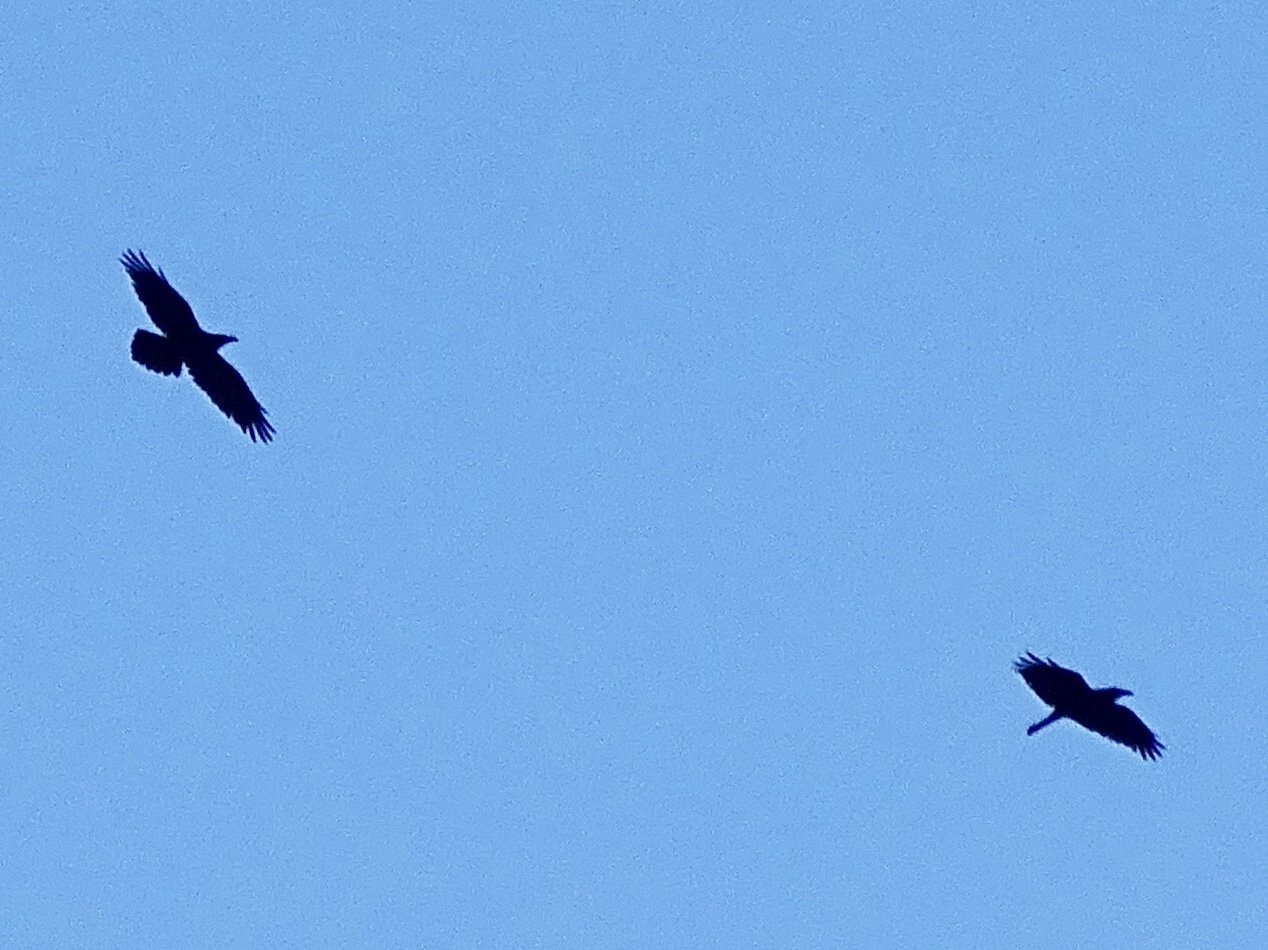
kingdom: Animalia
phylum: Chordata
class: Aves
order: Passeriformes
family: Corvidae
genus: Corvus
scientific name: Corvus corax
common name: Common raven
